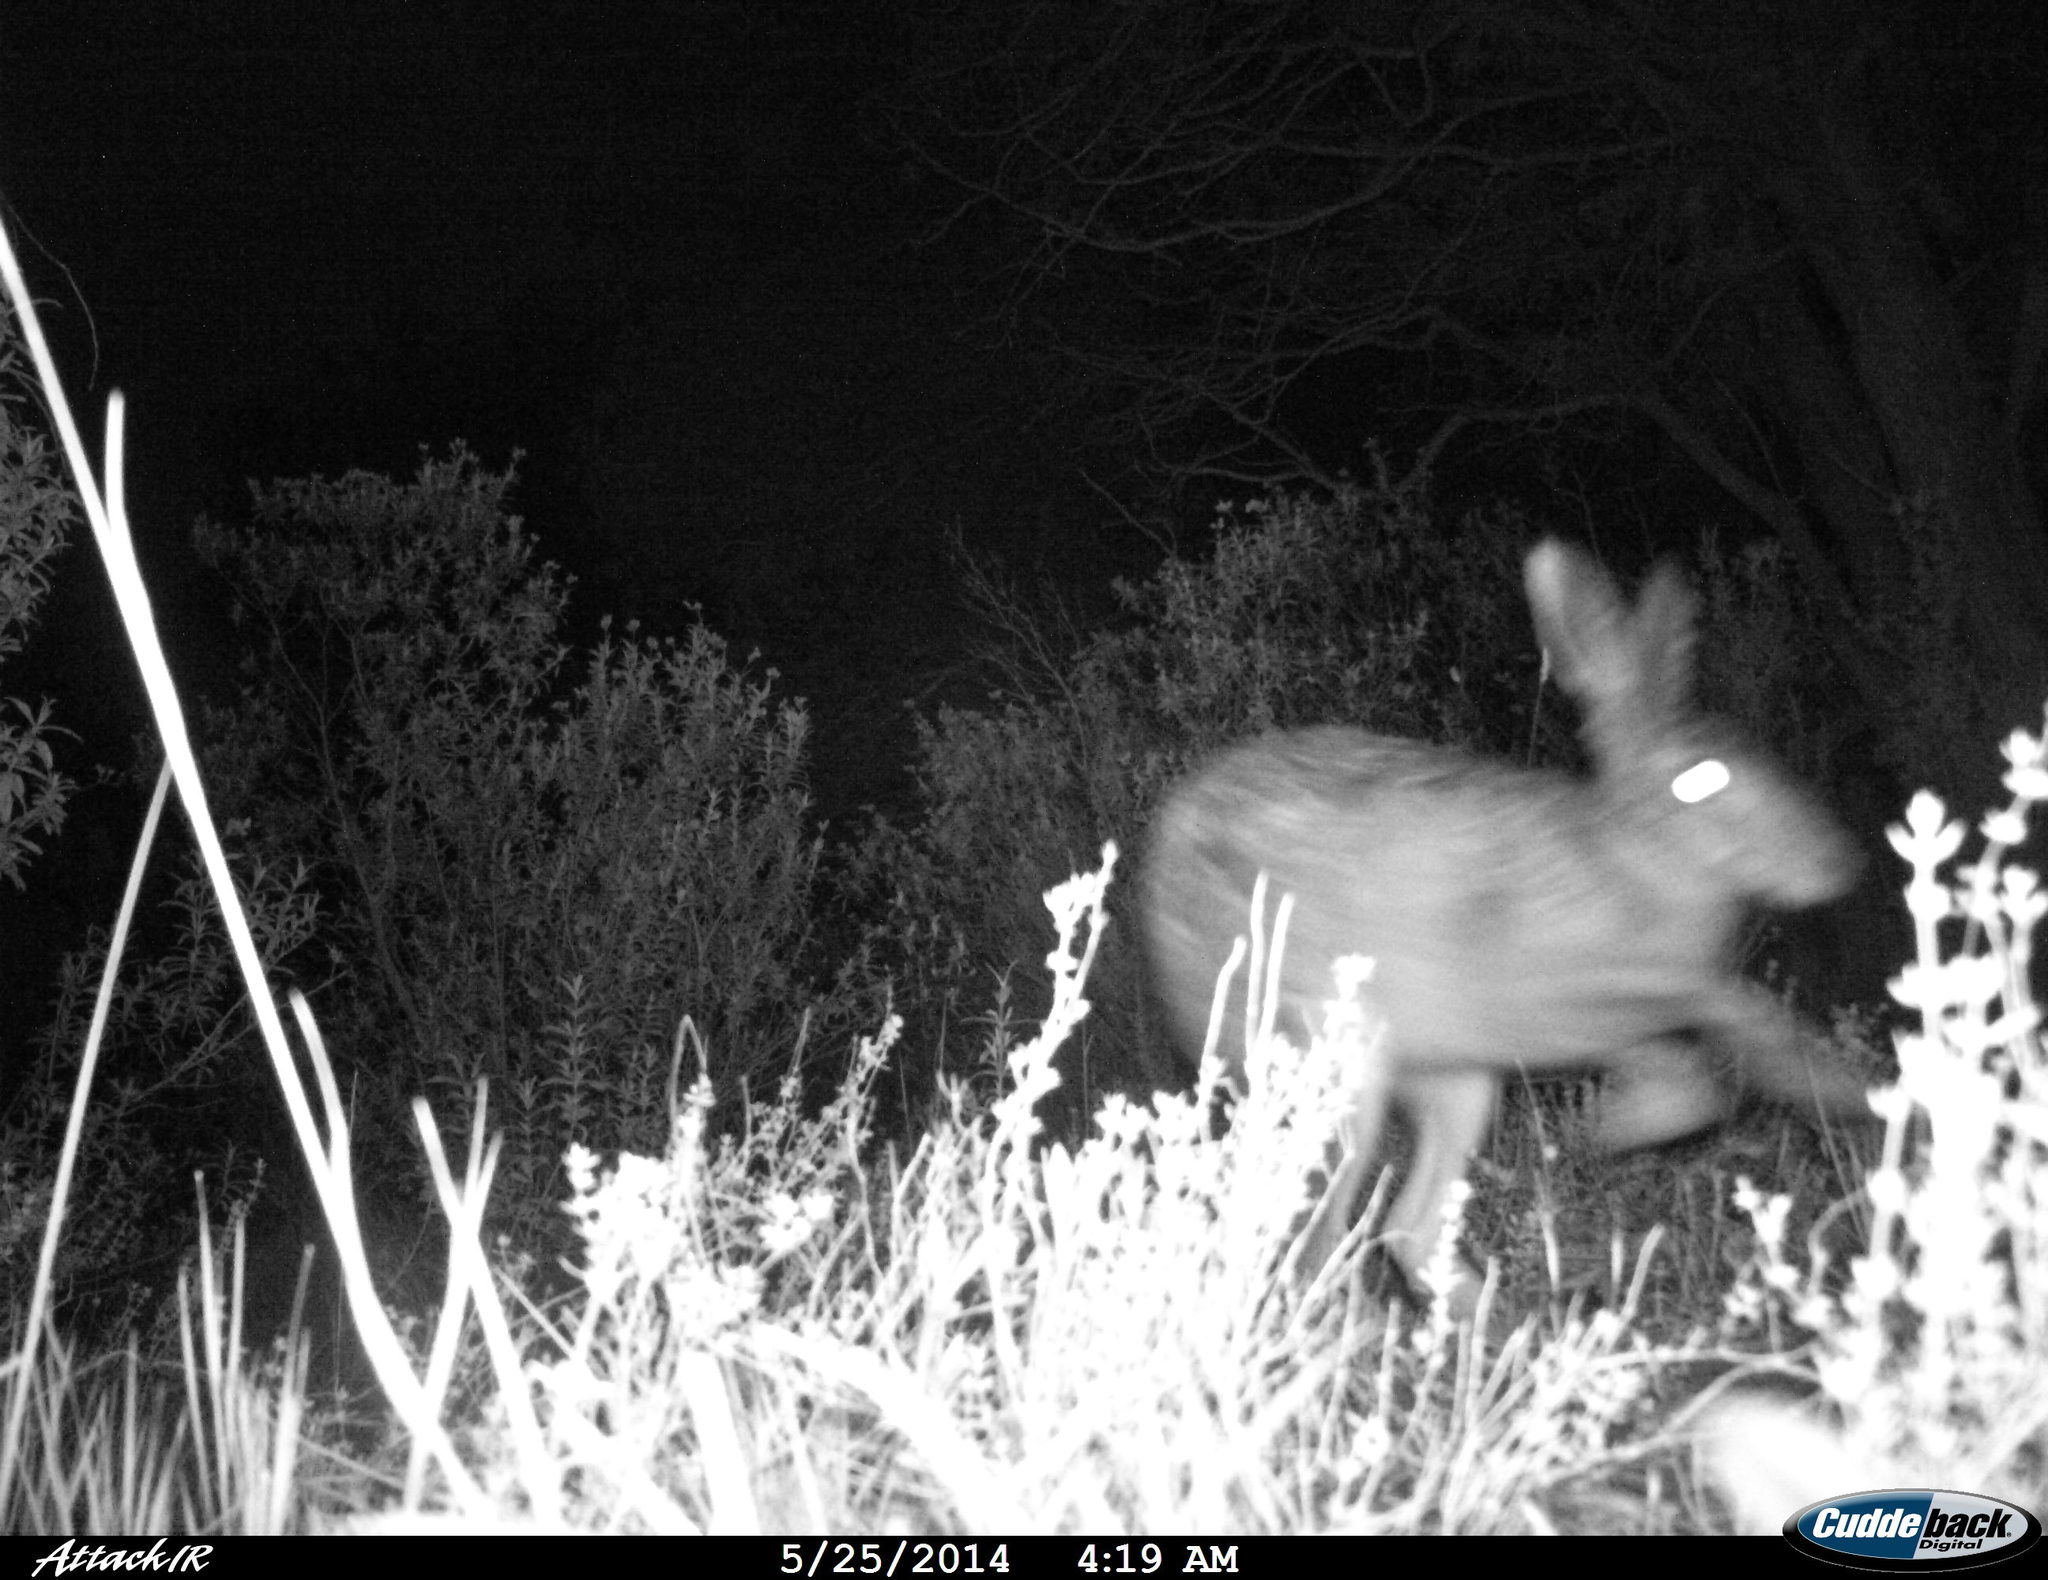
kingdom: Animalia
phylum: Chordata
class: Mammalia
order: Lagomorpha
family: Leporidae
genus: Lepus
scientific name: Lepus europaeus
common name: European hare
